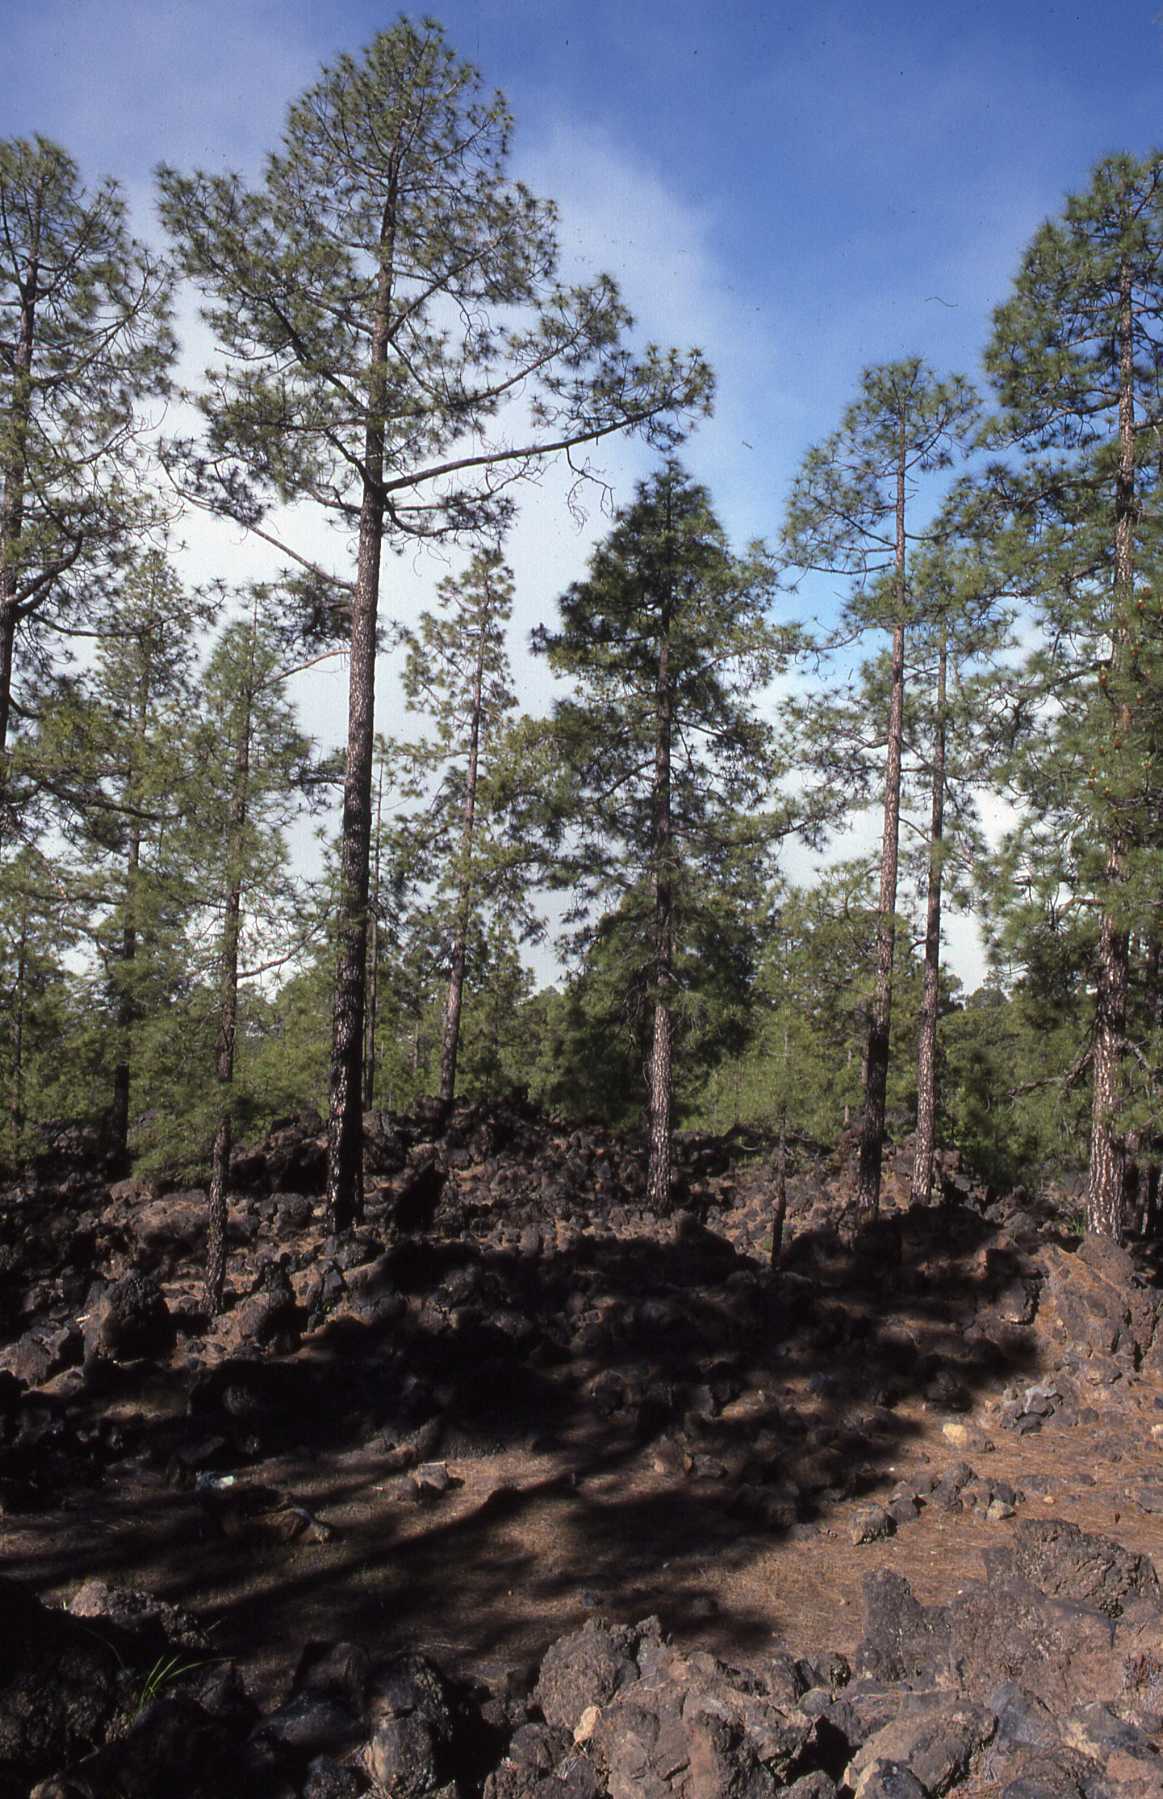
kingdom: Plantae
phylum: Tracheophyta
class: Pinopsida
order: Pinales
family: Pinaceae
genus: Pinus
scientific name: Pinus canariensis
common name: Canary islands pine
